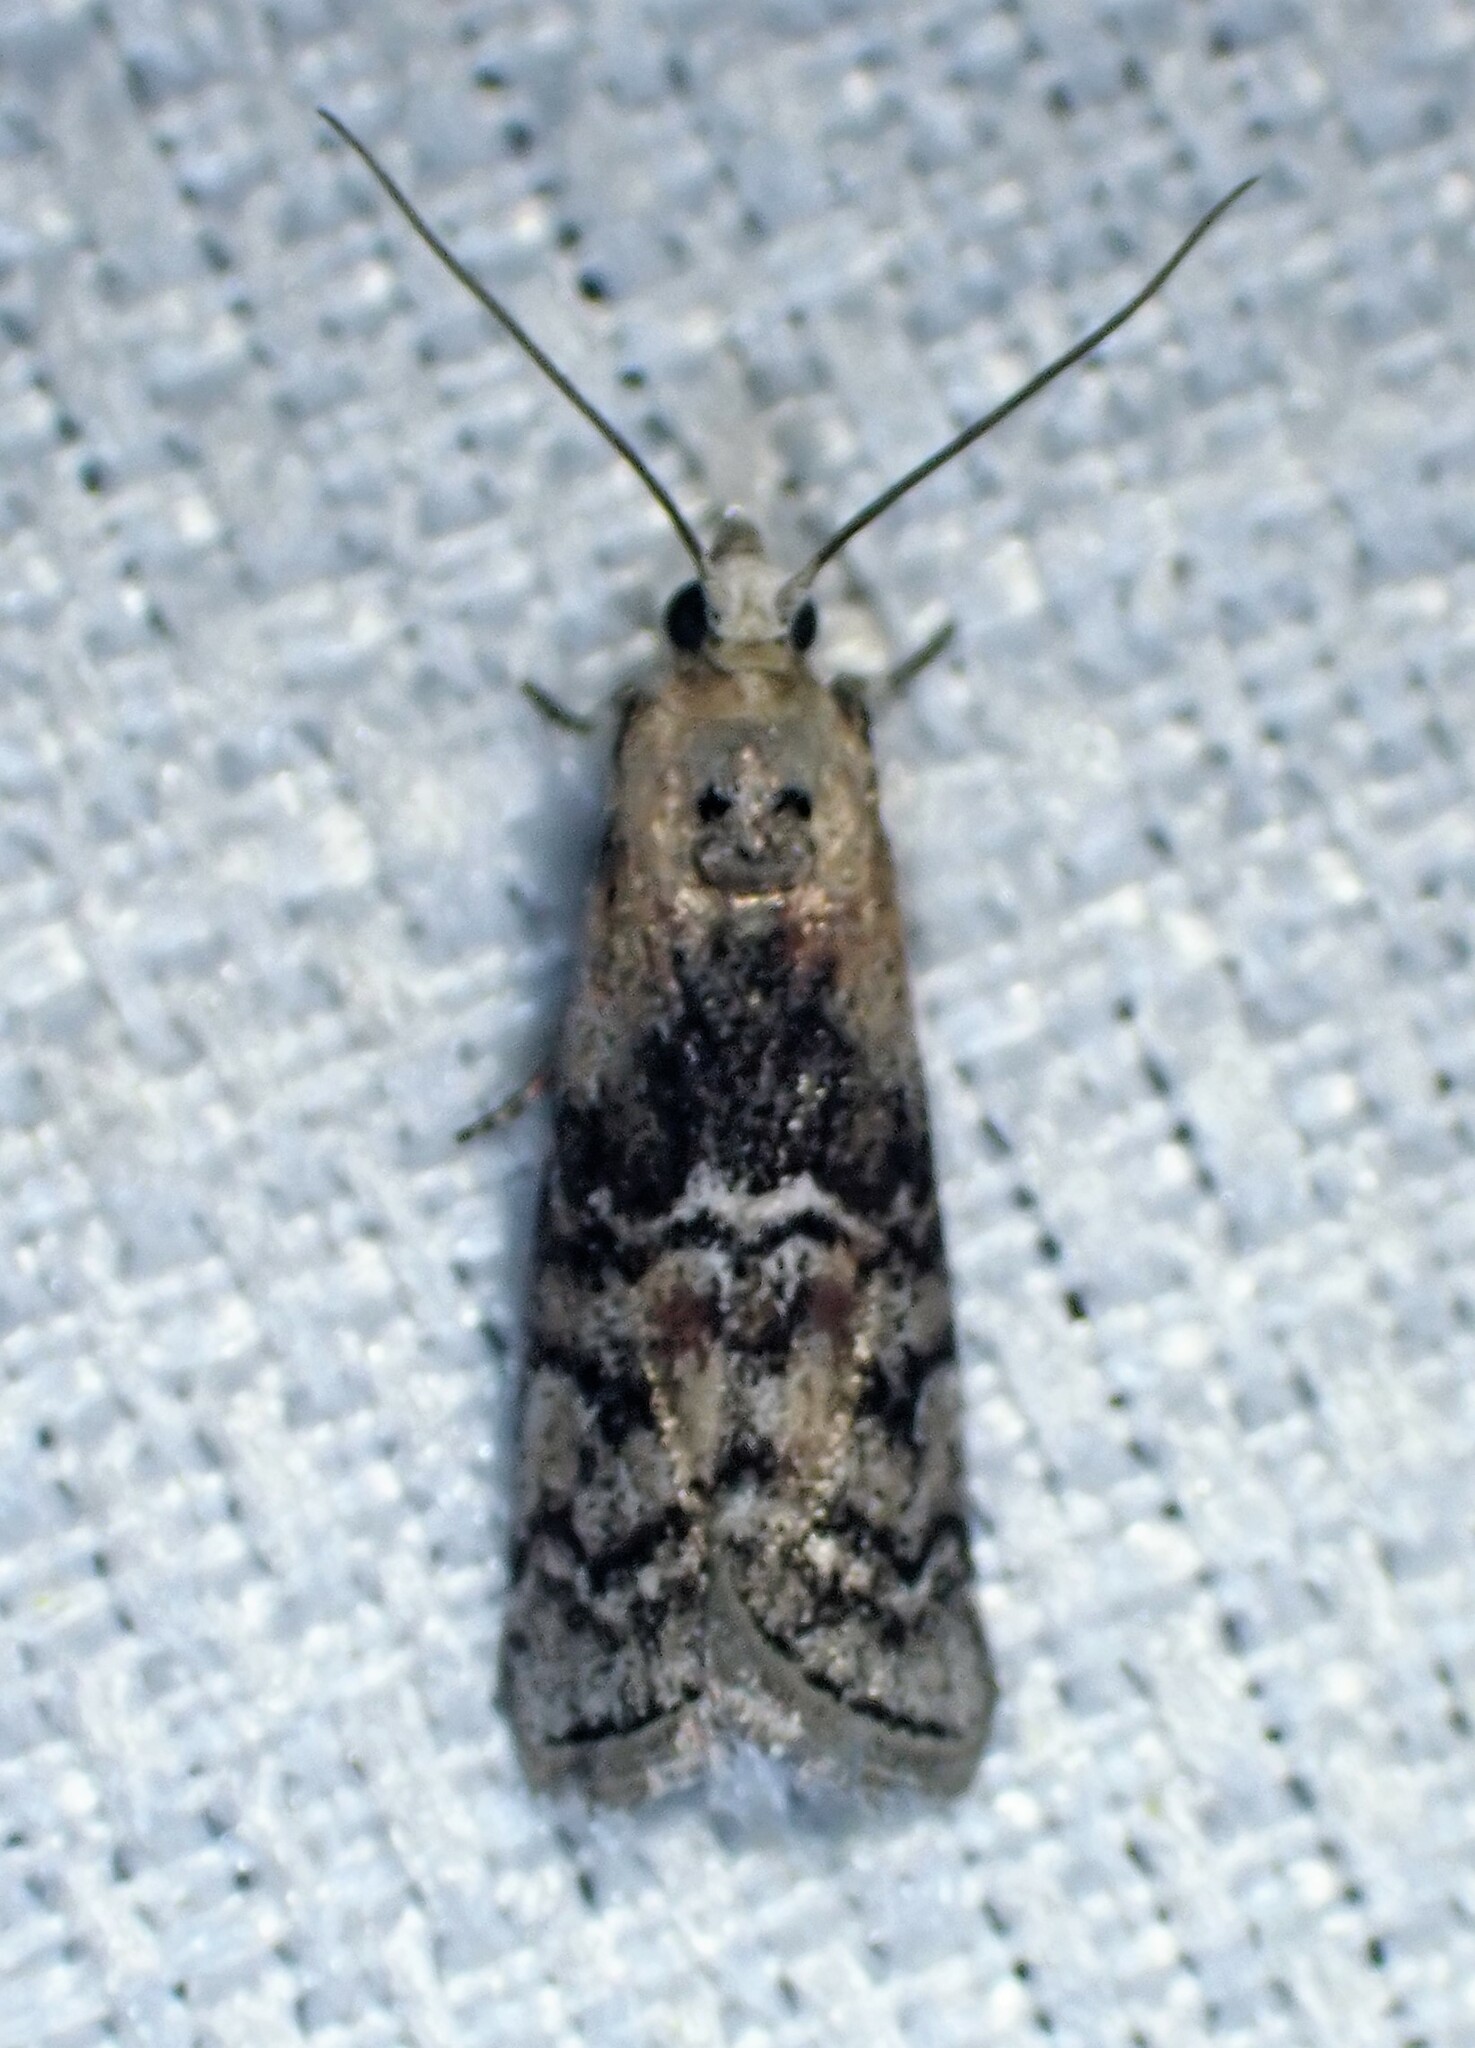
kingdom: Animalia
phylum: Arthropoda
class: Insecta
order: Lepidoptera
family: Pyralidae
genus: Glyptocera
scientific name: Glyptocera consobrinella
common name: Viburnum glyptocera moth
